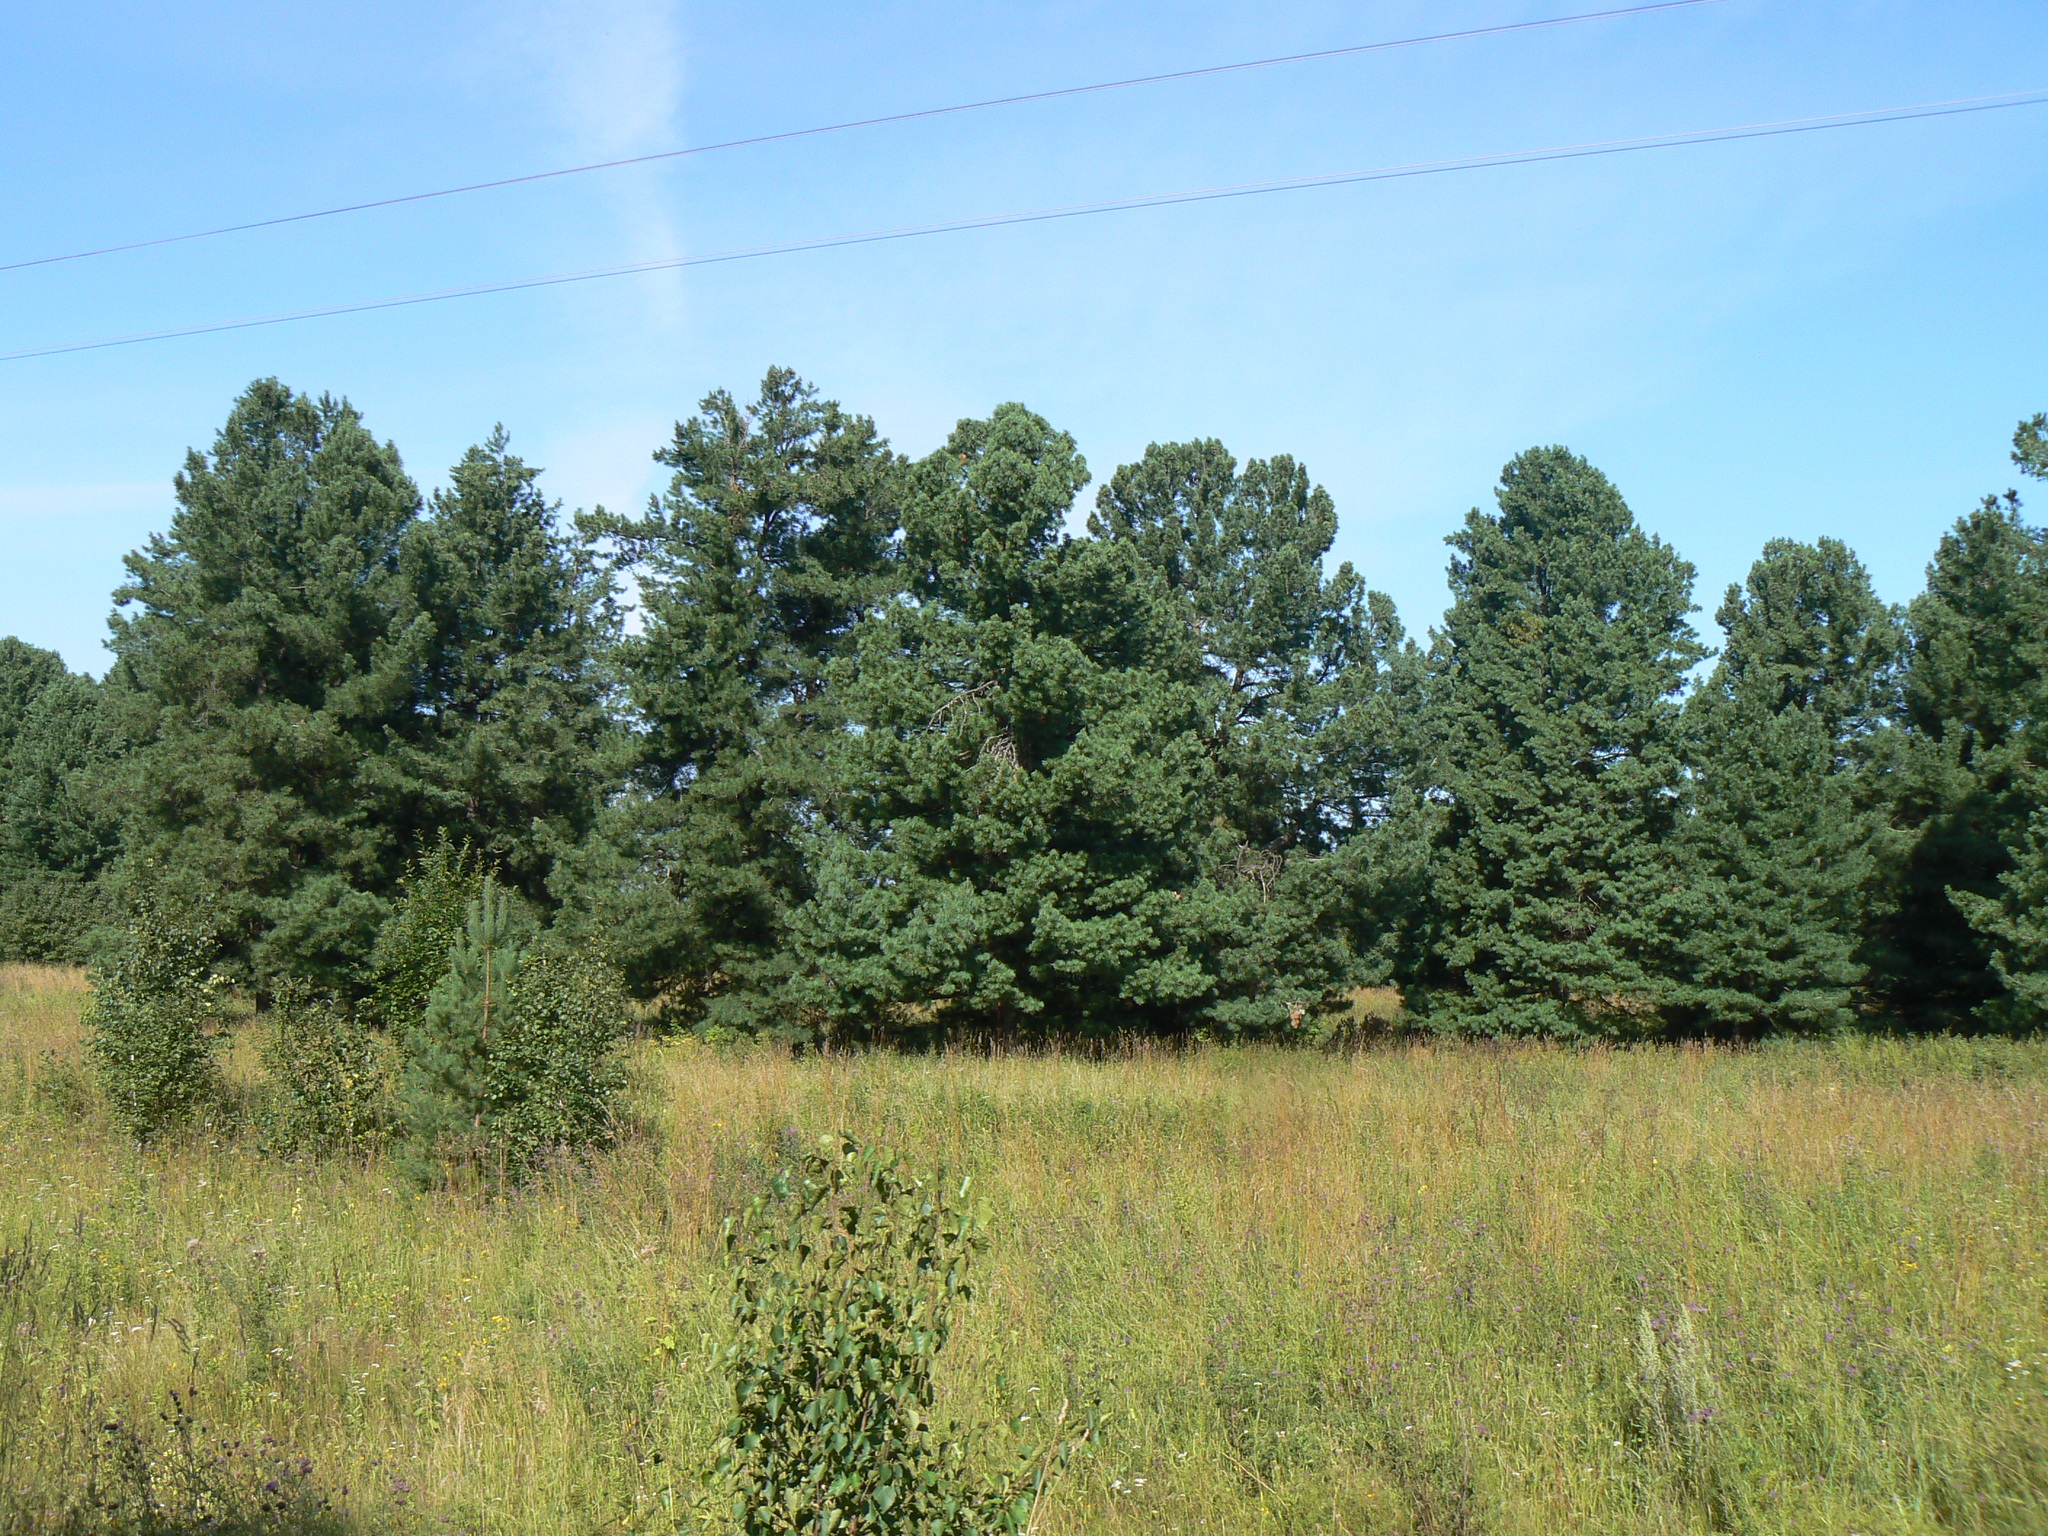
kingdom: Plantae
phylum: Tracheophyta
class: Pinopsida
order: Pinales
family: Pinaceae
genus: Pinus
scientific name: Pinus sibirica
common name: Siberian pine
